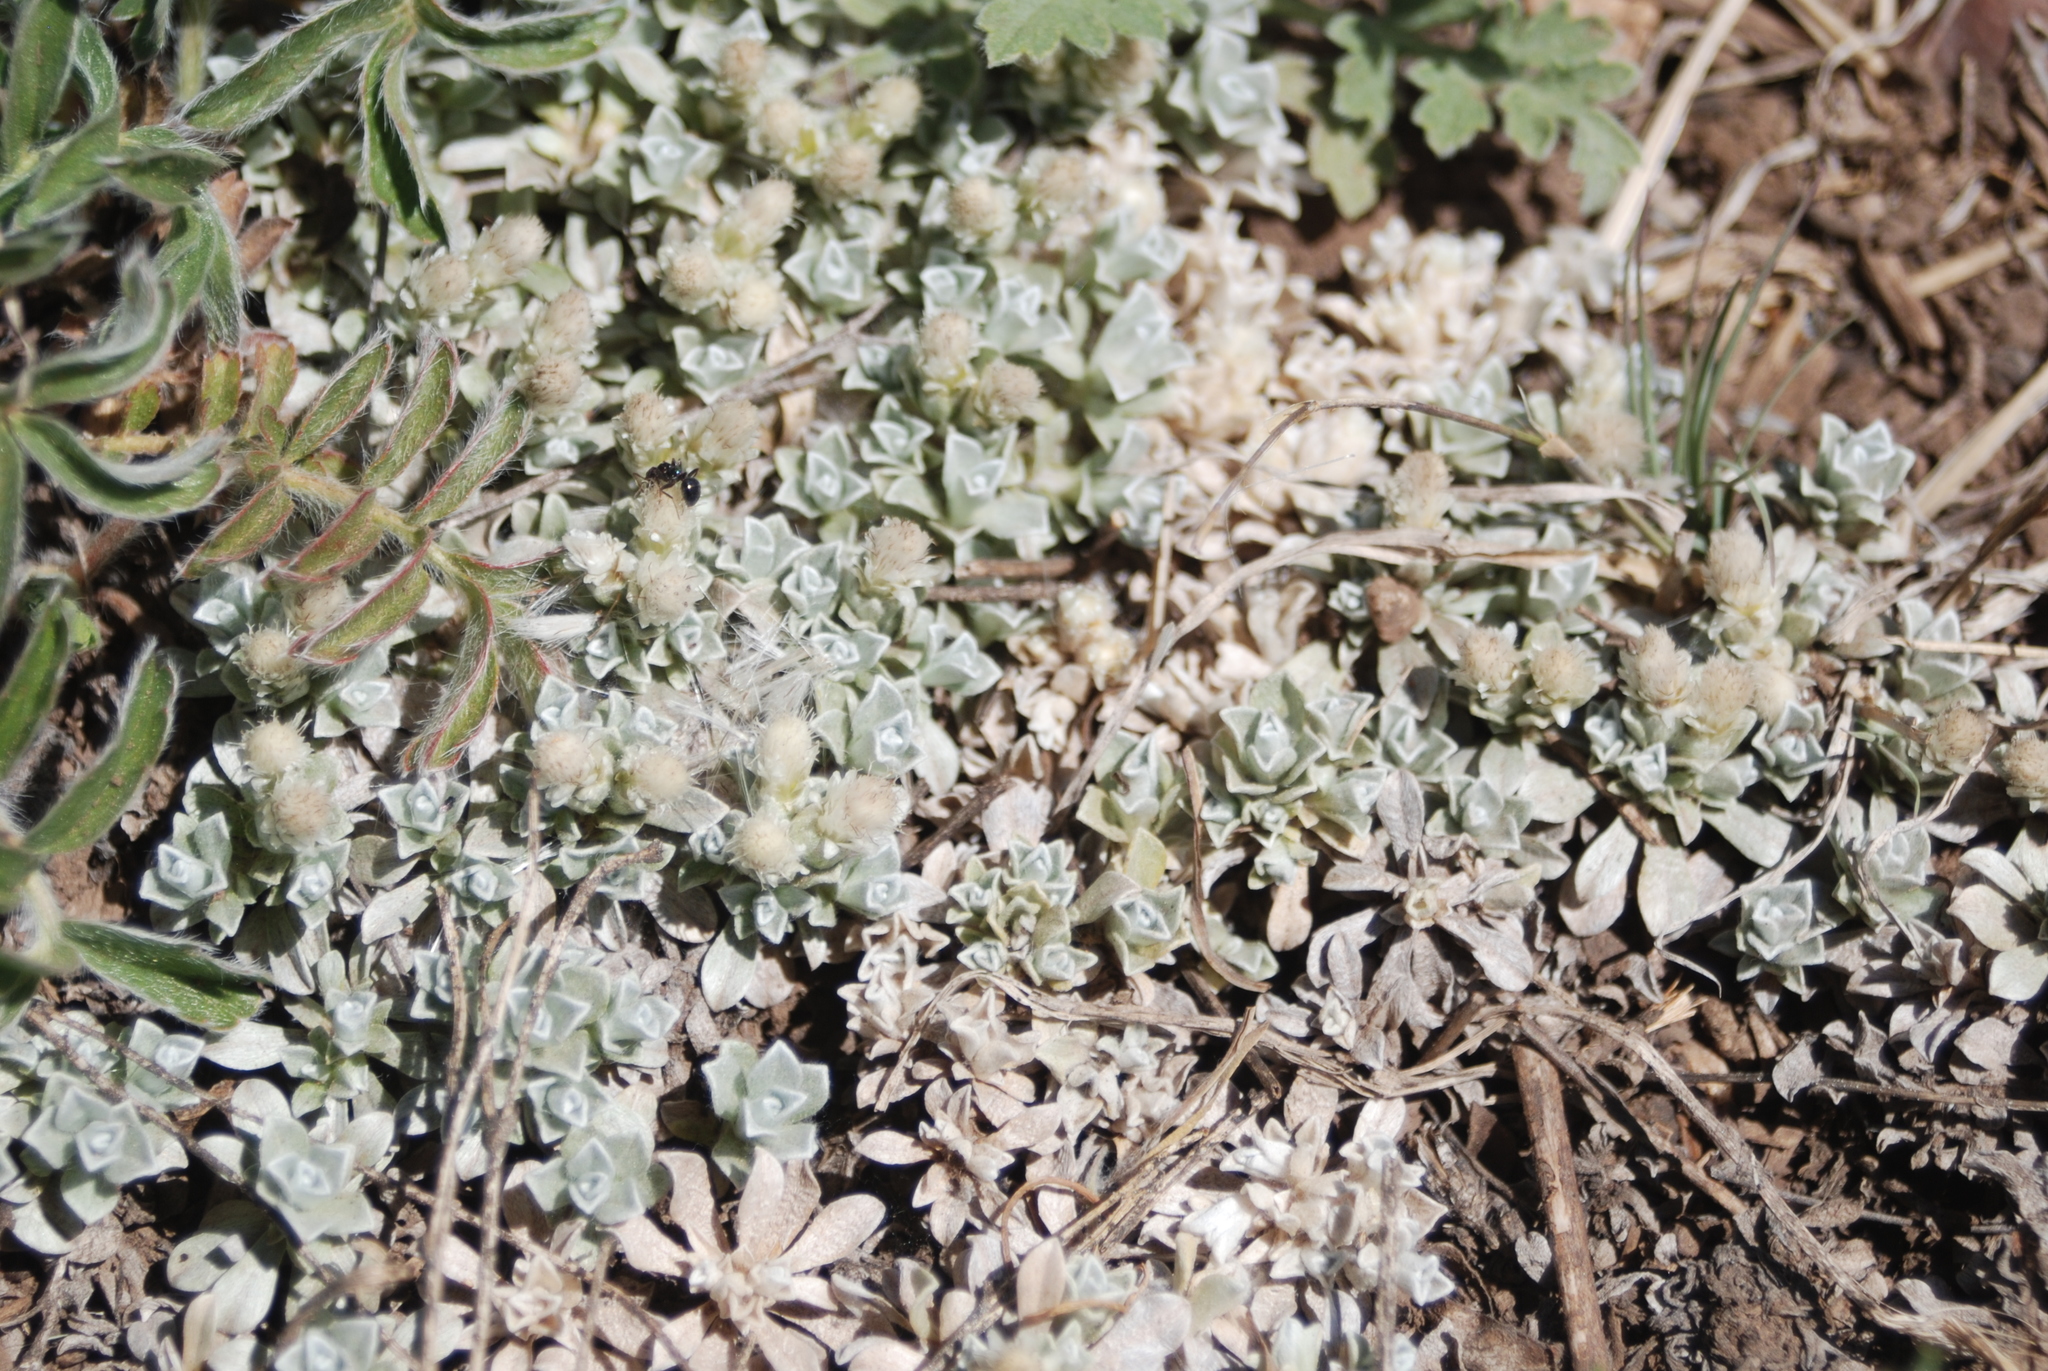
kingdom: Plantae
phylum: Tracheophyta
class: Magnoliopsida
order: Asterales
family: Asteraceae
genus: Antennaria
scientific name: Antennaria rosulata
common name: Woolly pussytoes
